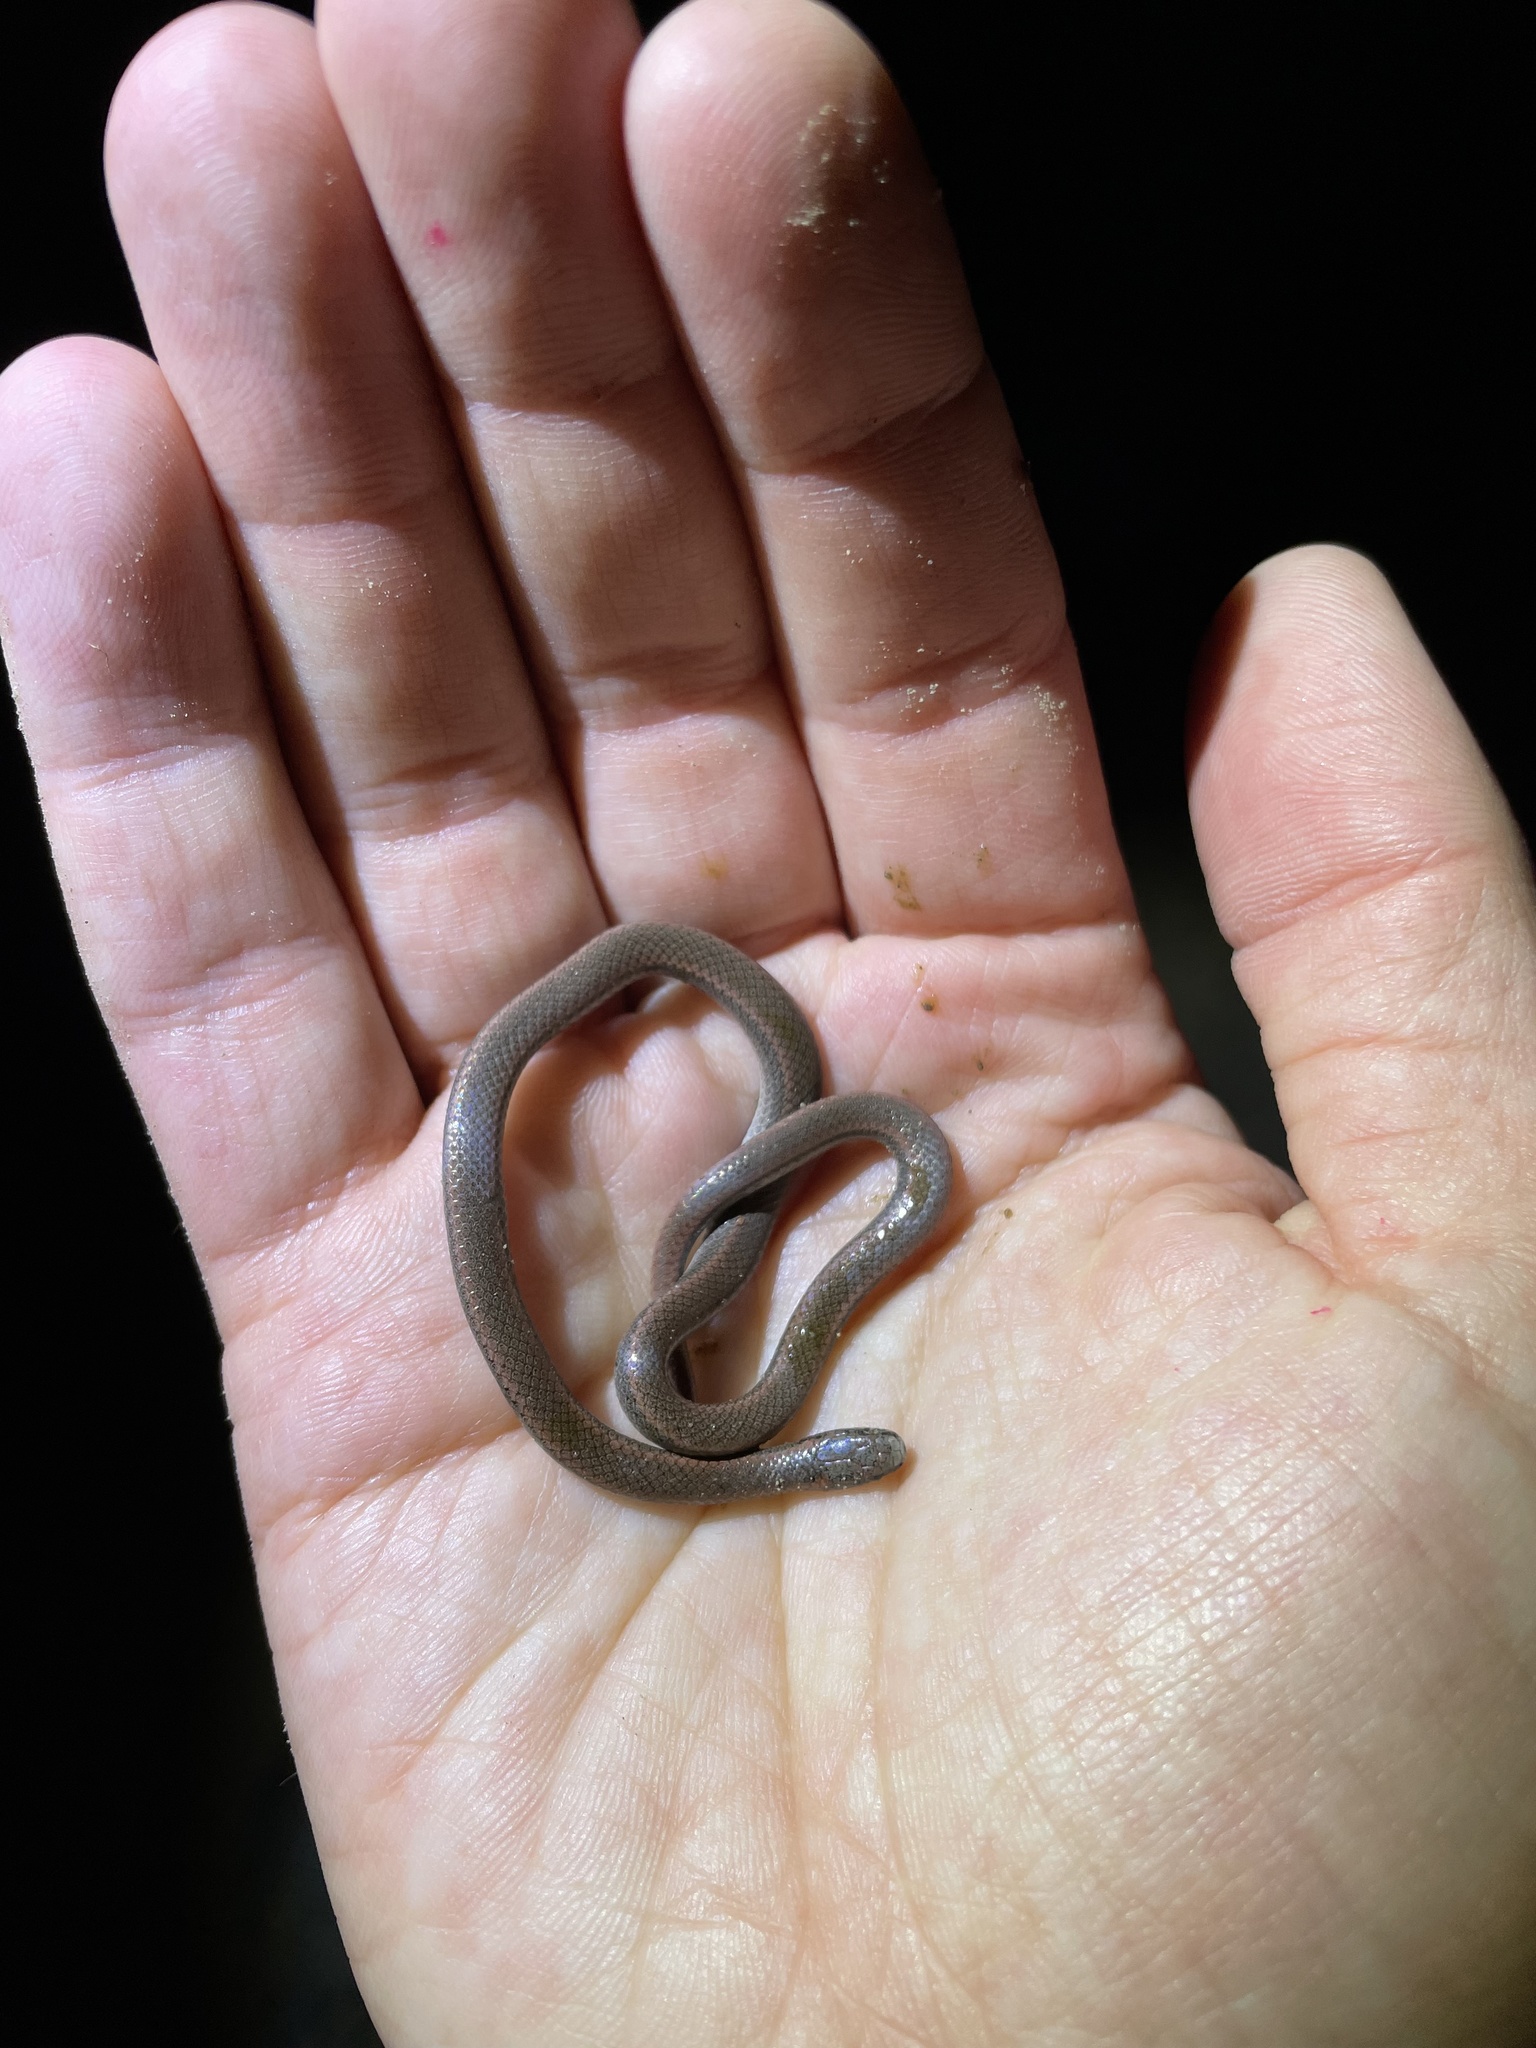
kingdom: Animalia
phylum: Chordata
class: Squamata
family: Colubridae
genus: Contia
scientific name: Contia tenuis
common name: Sharptail snake
